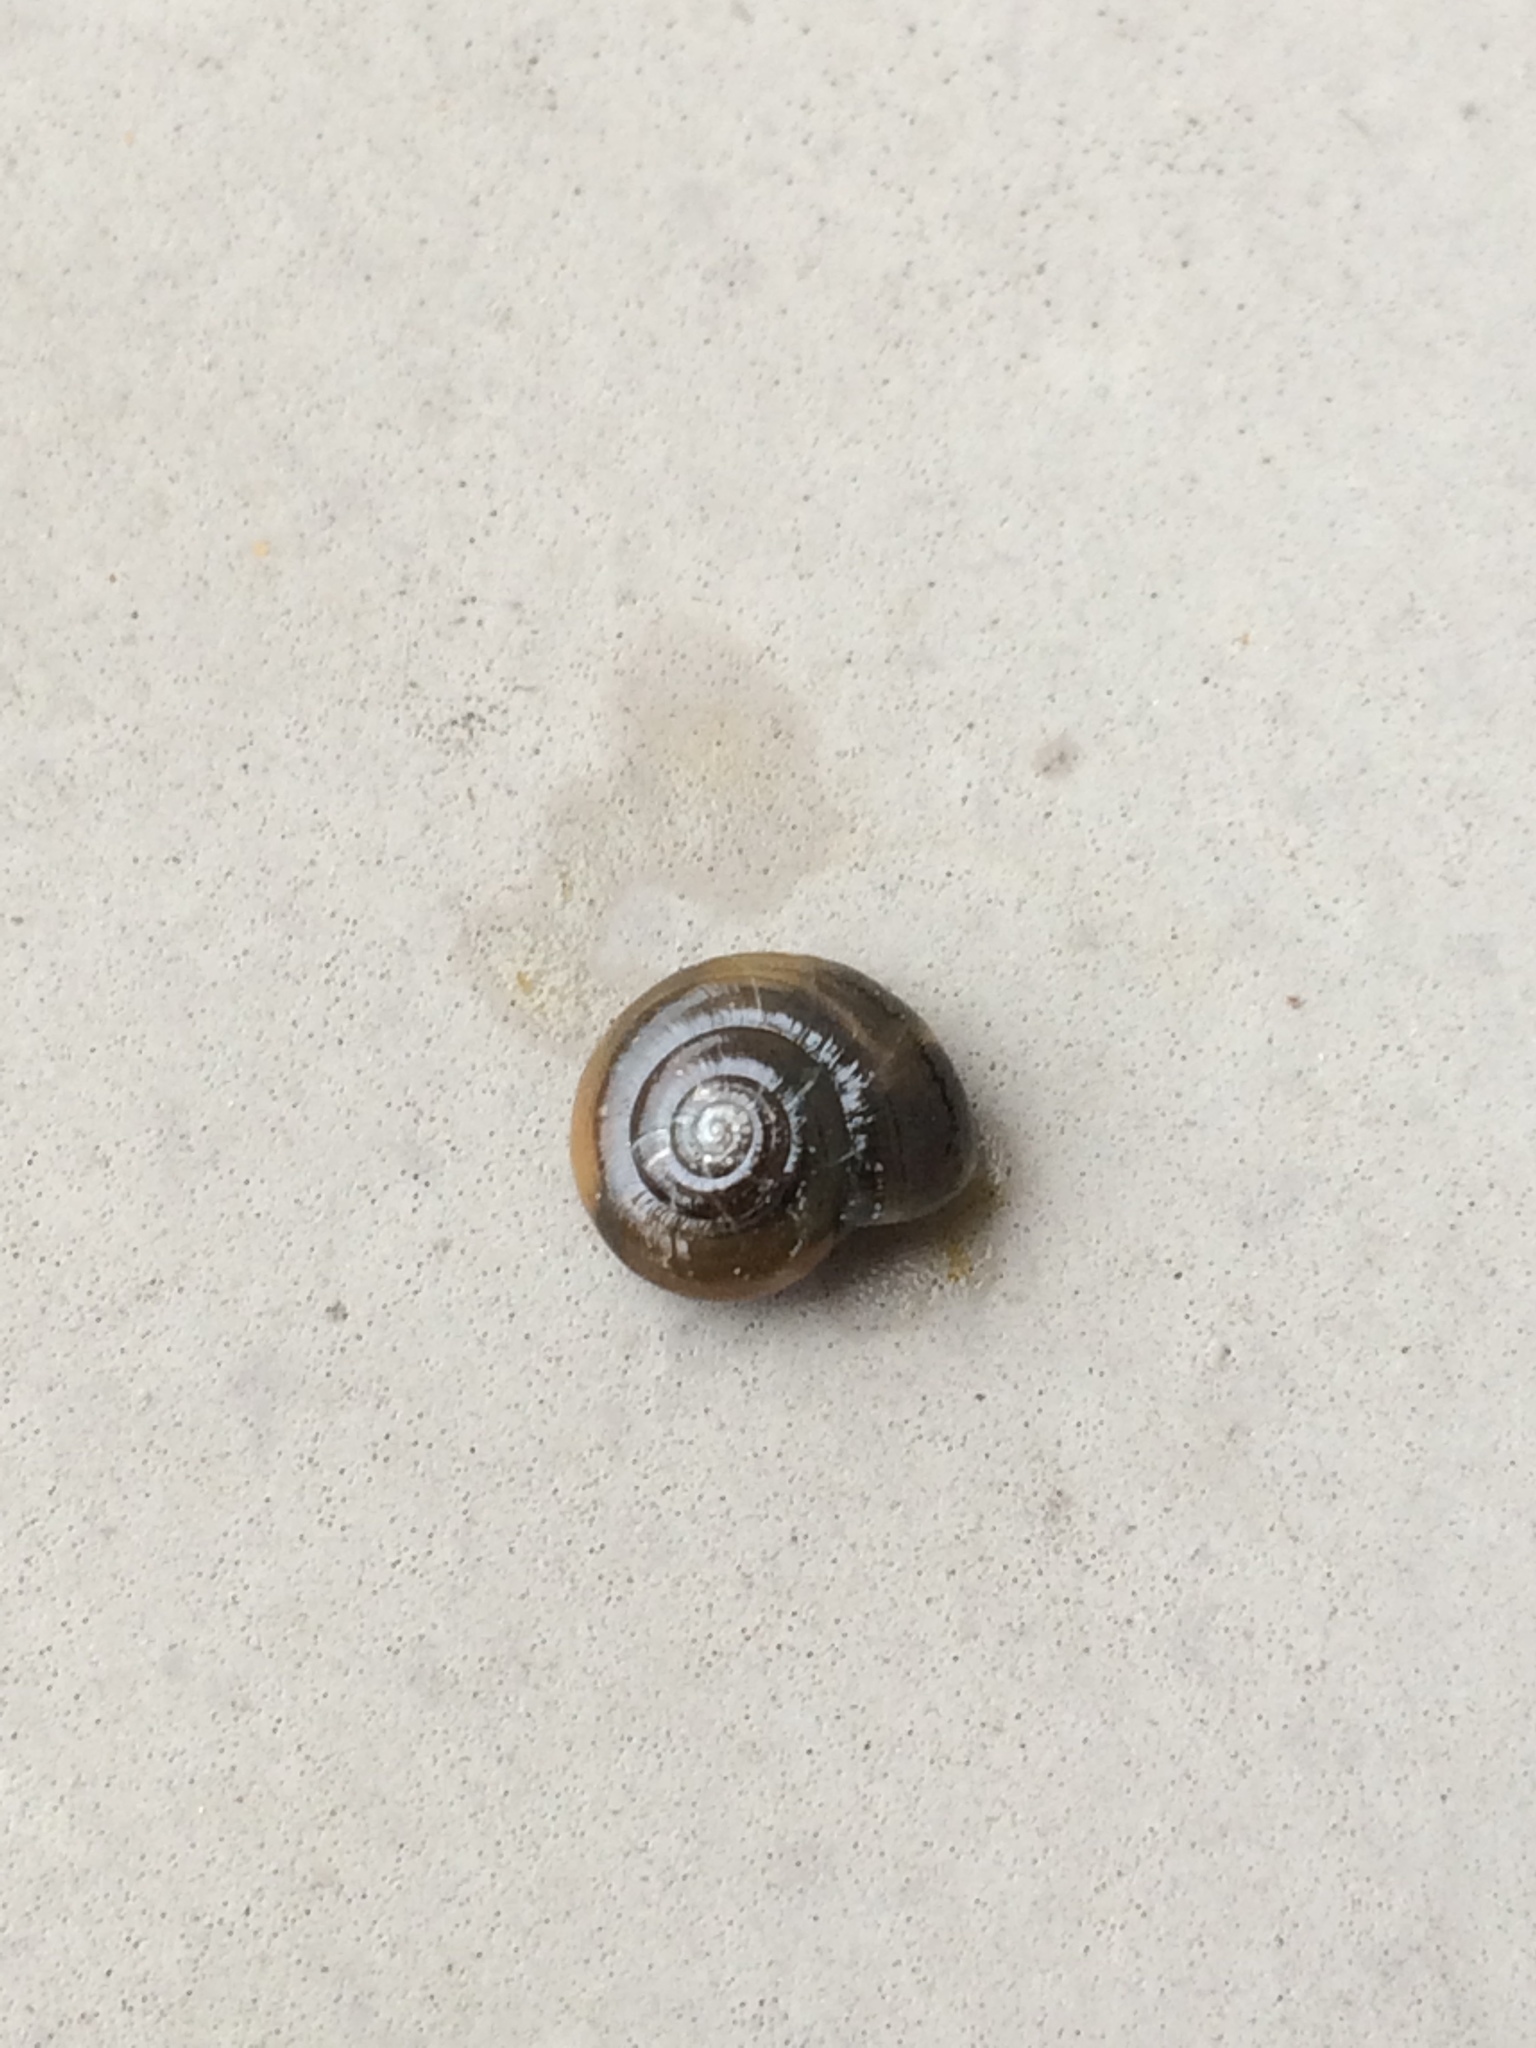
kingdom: Animalia
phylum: Mollusca
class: Gastropoda
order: Stylommatophora
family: Oxychilidae
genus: Oxychilus
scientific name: Oxychilus draparnaudi
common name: Draparnaud's glass snail
